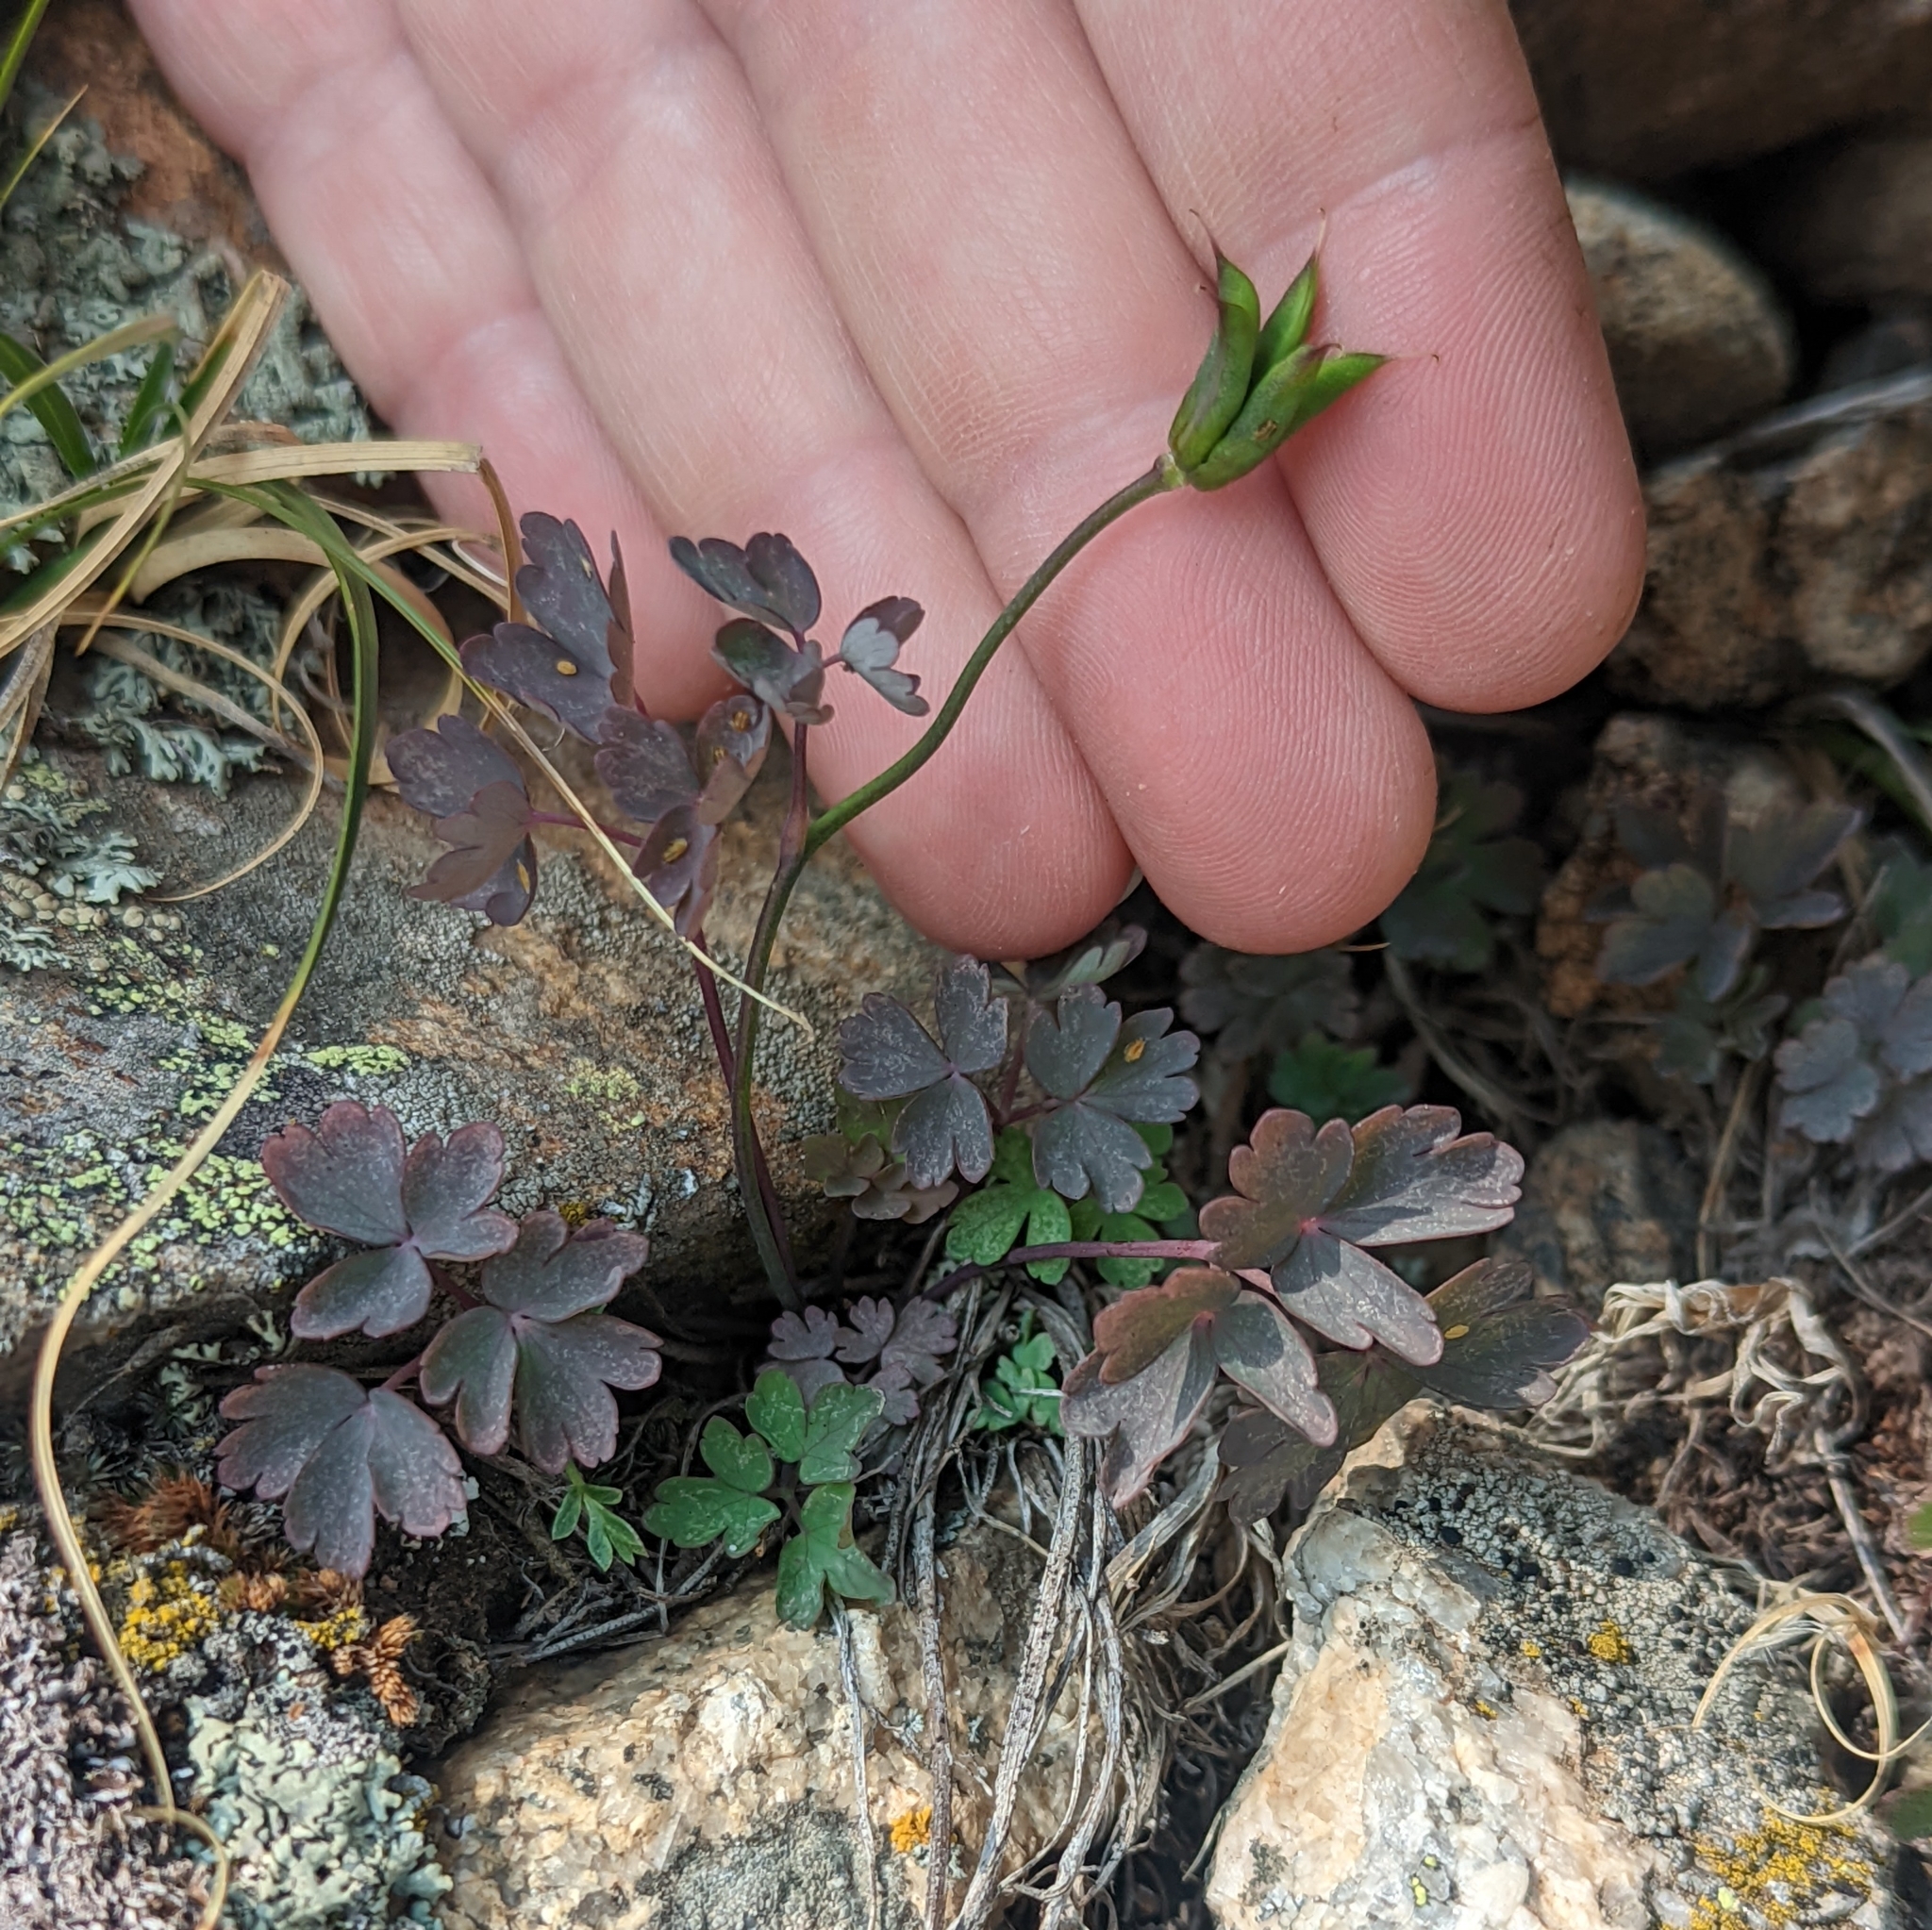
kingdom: Plantae
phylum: Tracheophyta
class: Magnoliopsida
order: Ranunculales
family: Ranunculaceae
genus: Aquilegia
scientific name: Aquilegia saximontana
